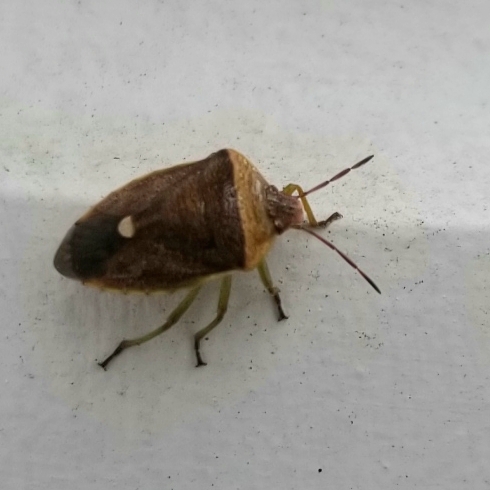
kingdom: Animalia
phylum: Arthropoda
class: Insecta
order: Hemiptera
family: Pentatomidae
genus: Banasa
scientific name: Banasa calva
